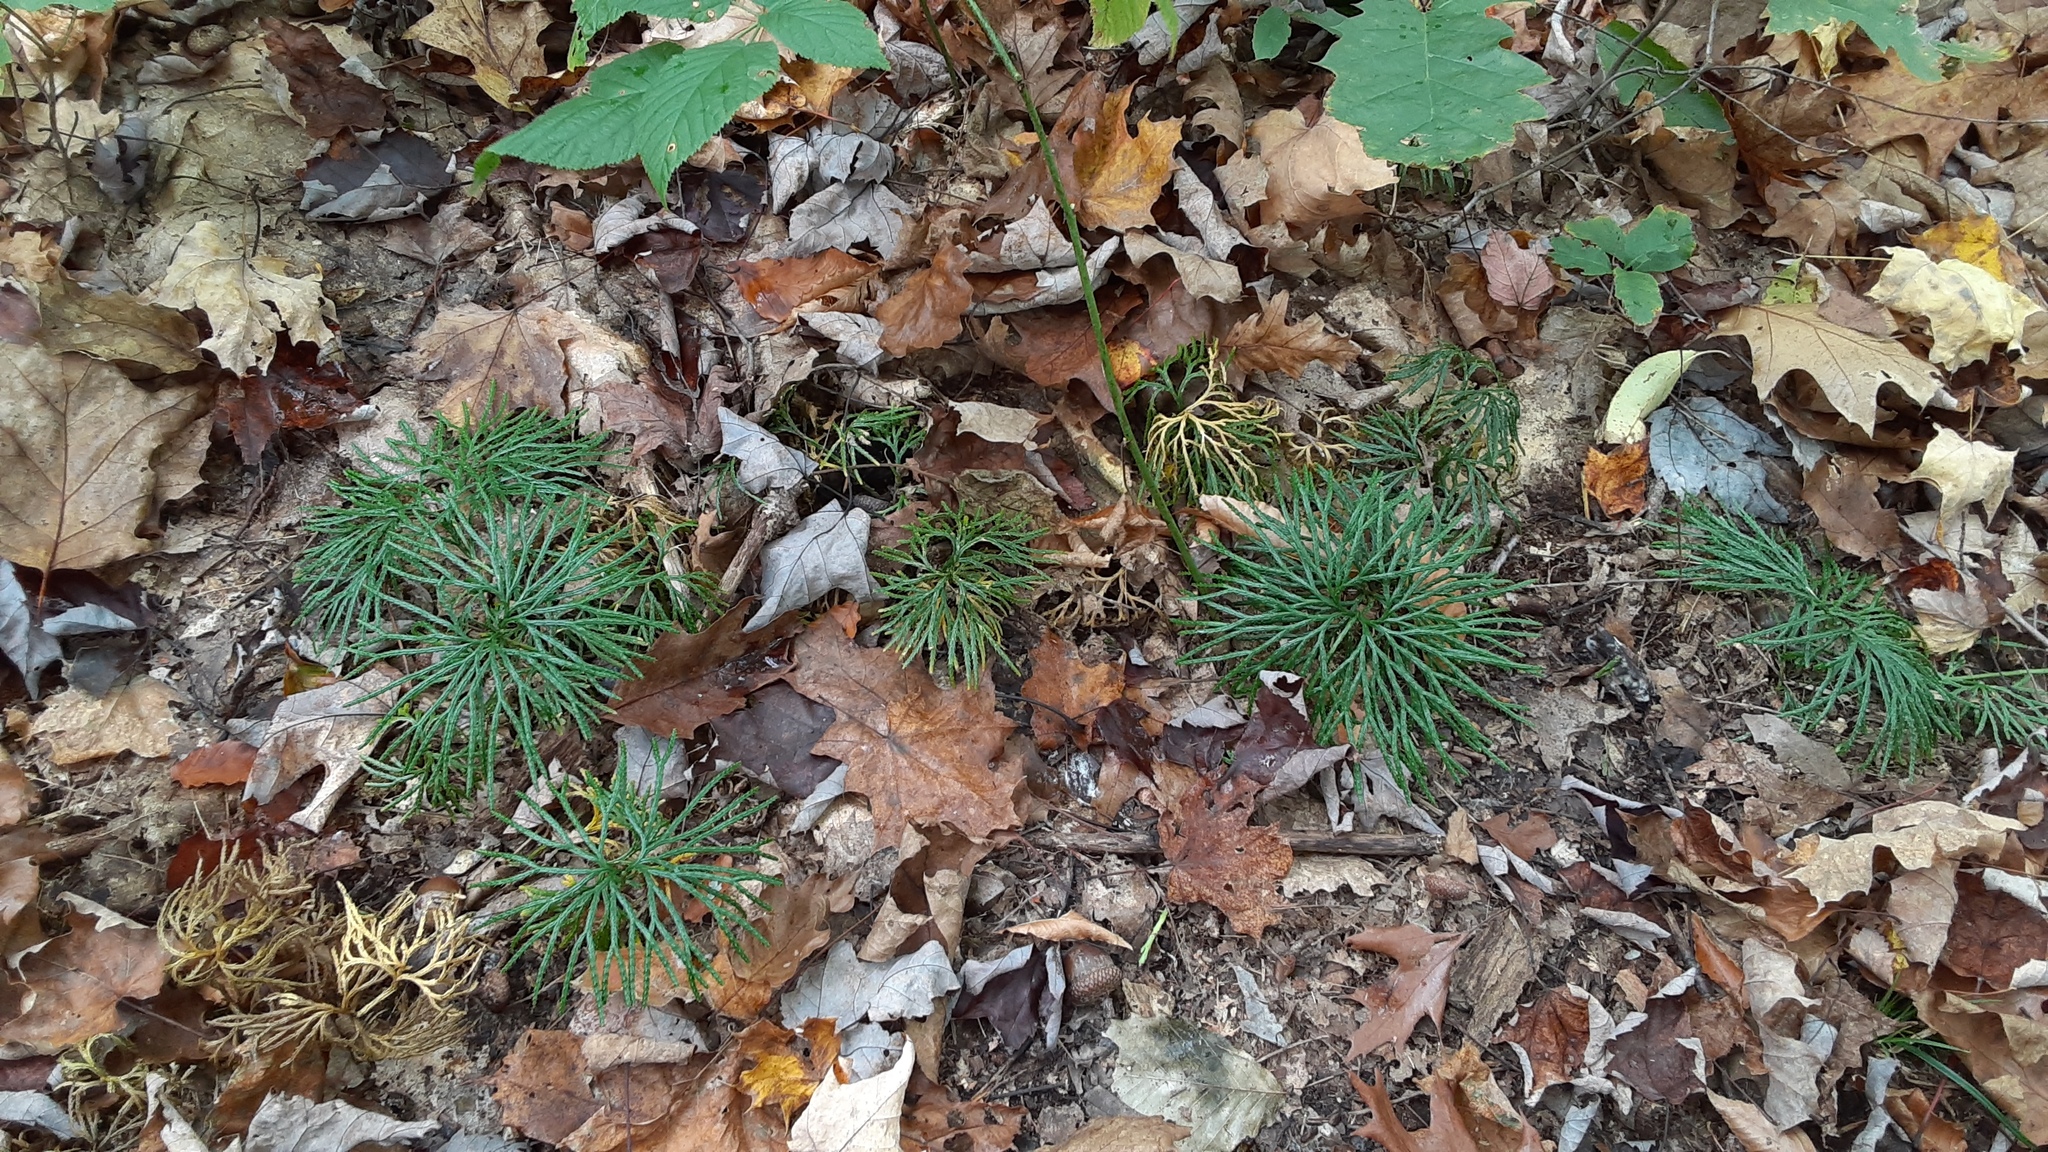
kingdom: Plantae
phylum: Tracheophyta
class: Lycopodiopsida
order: Lycopodiales
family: Lycopodiaceae
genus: Diphasiastrum
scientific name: Diphasiastrum digitatum
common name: Southern running-pine
